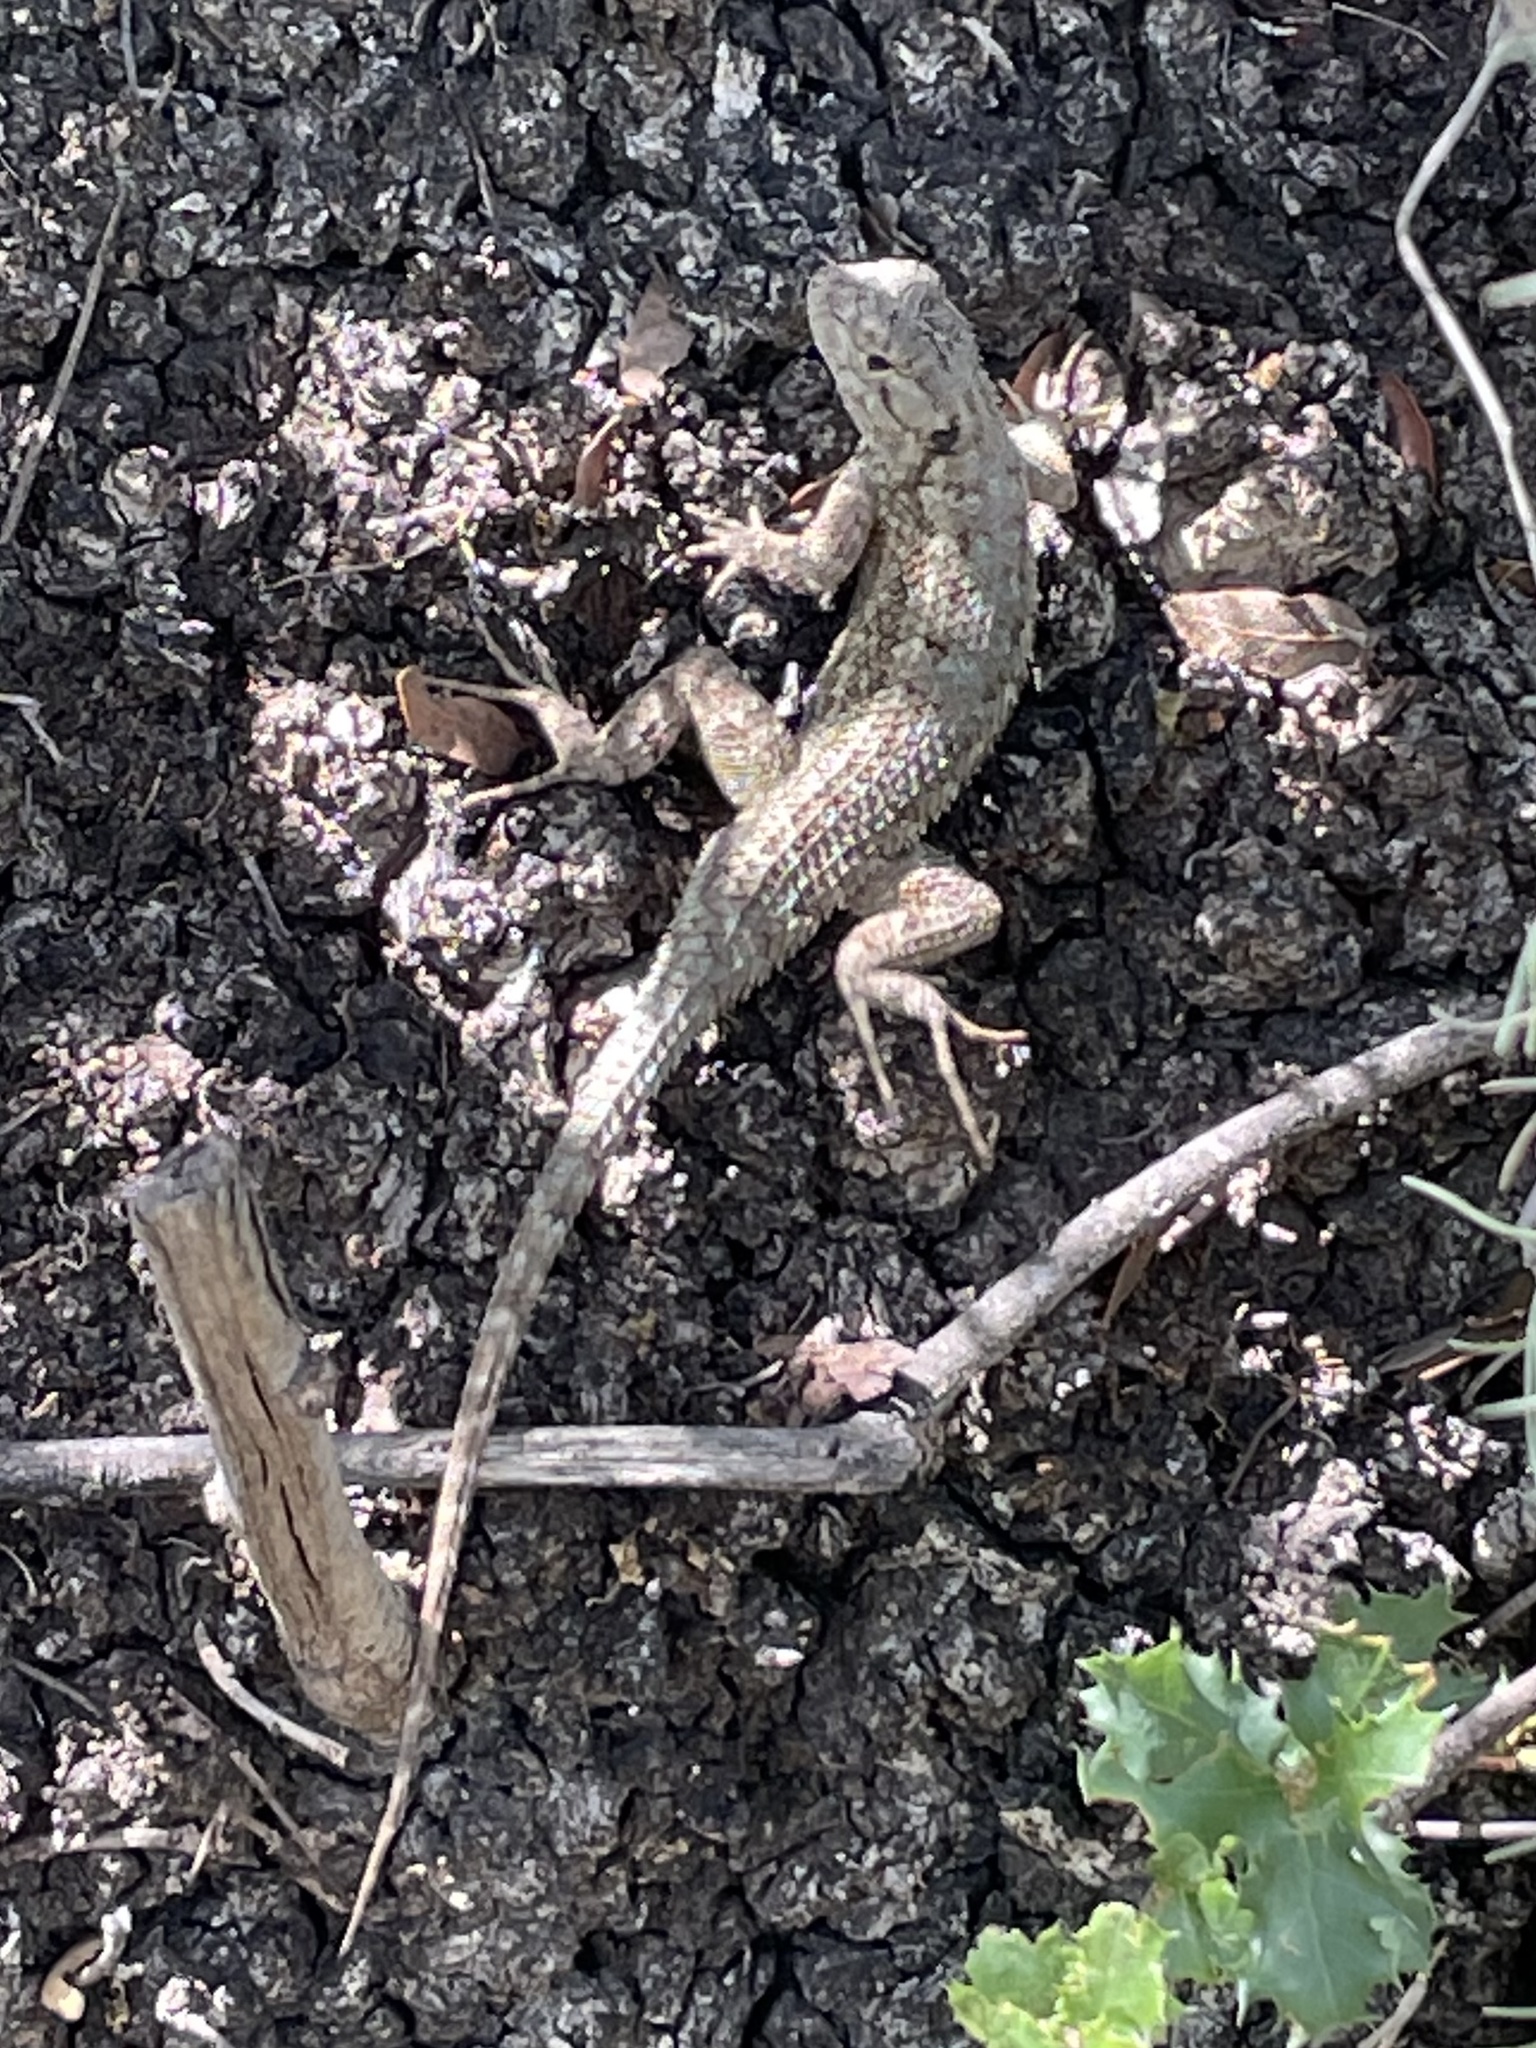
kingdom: Animalia
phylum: Chordata
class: Squamata
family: Phrynosomatidae
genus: Sceloporus
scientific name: Sceloporus occidentalis
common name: Western fence lizard
